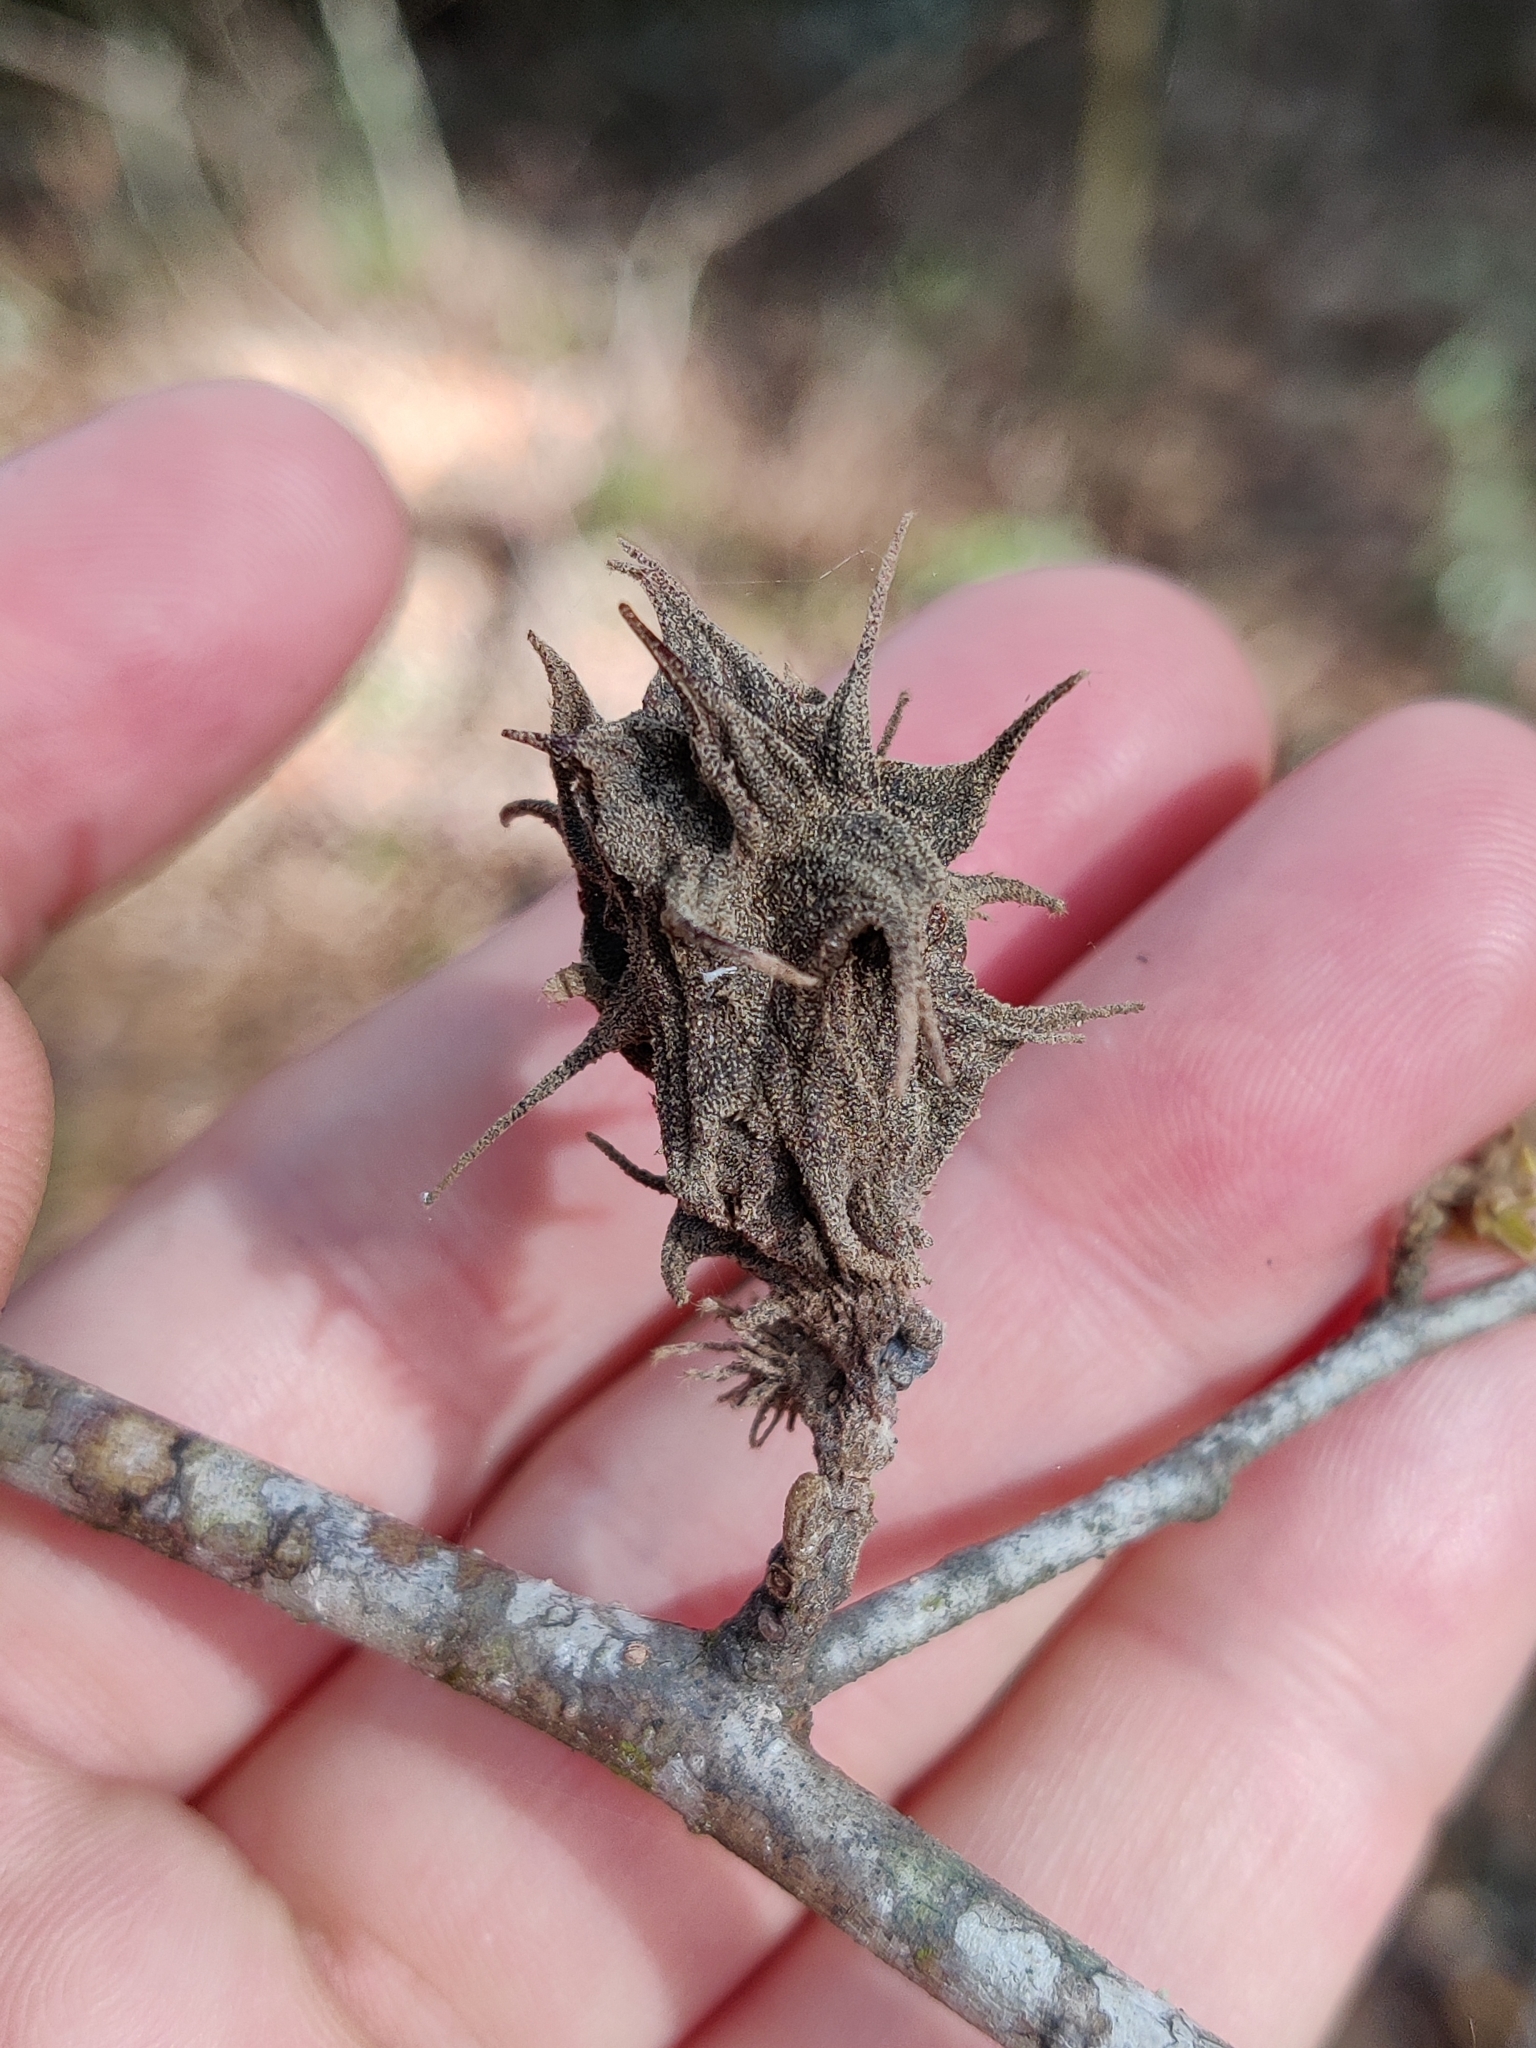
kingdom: Animalia
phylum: Arthropoda
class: Insecta
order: Hemiptera
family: Aphididae
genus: Hamamelistes
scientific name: Hamamelistes spinosus
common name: Witch hazel gall aphid
